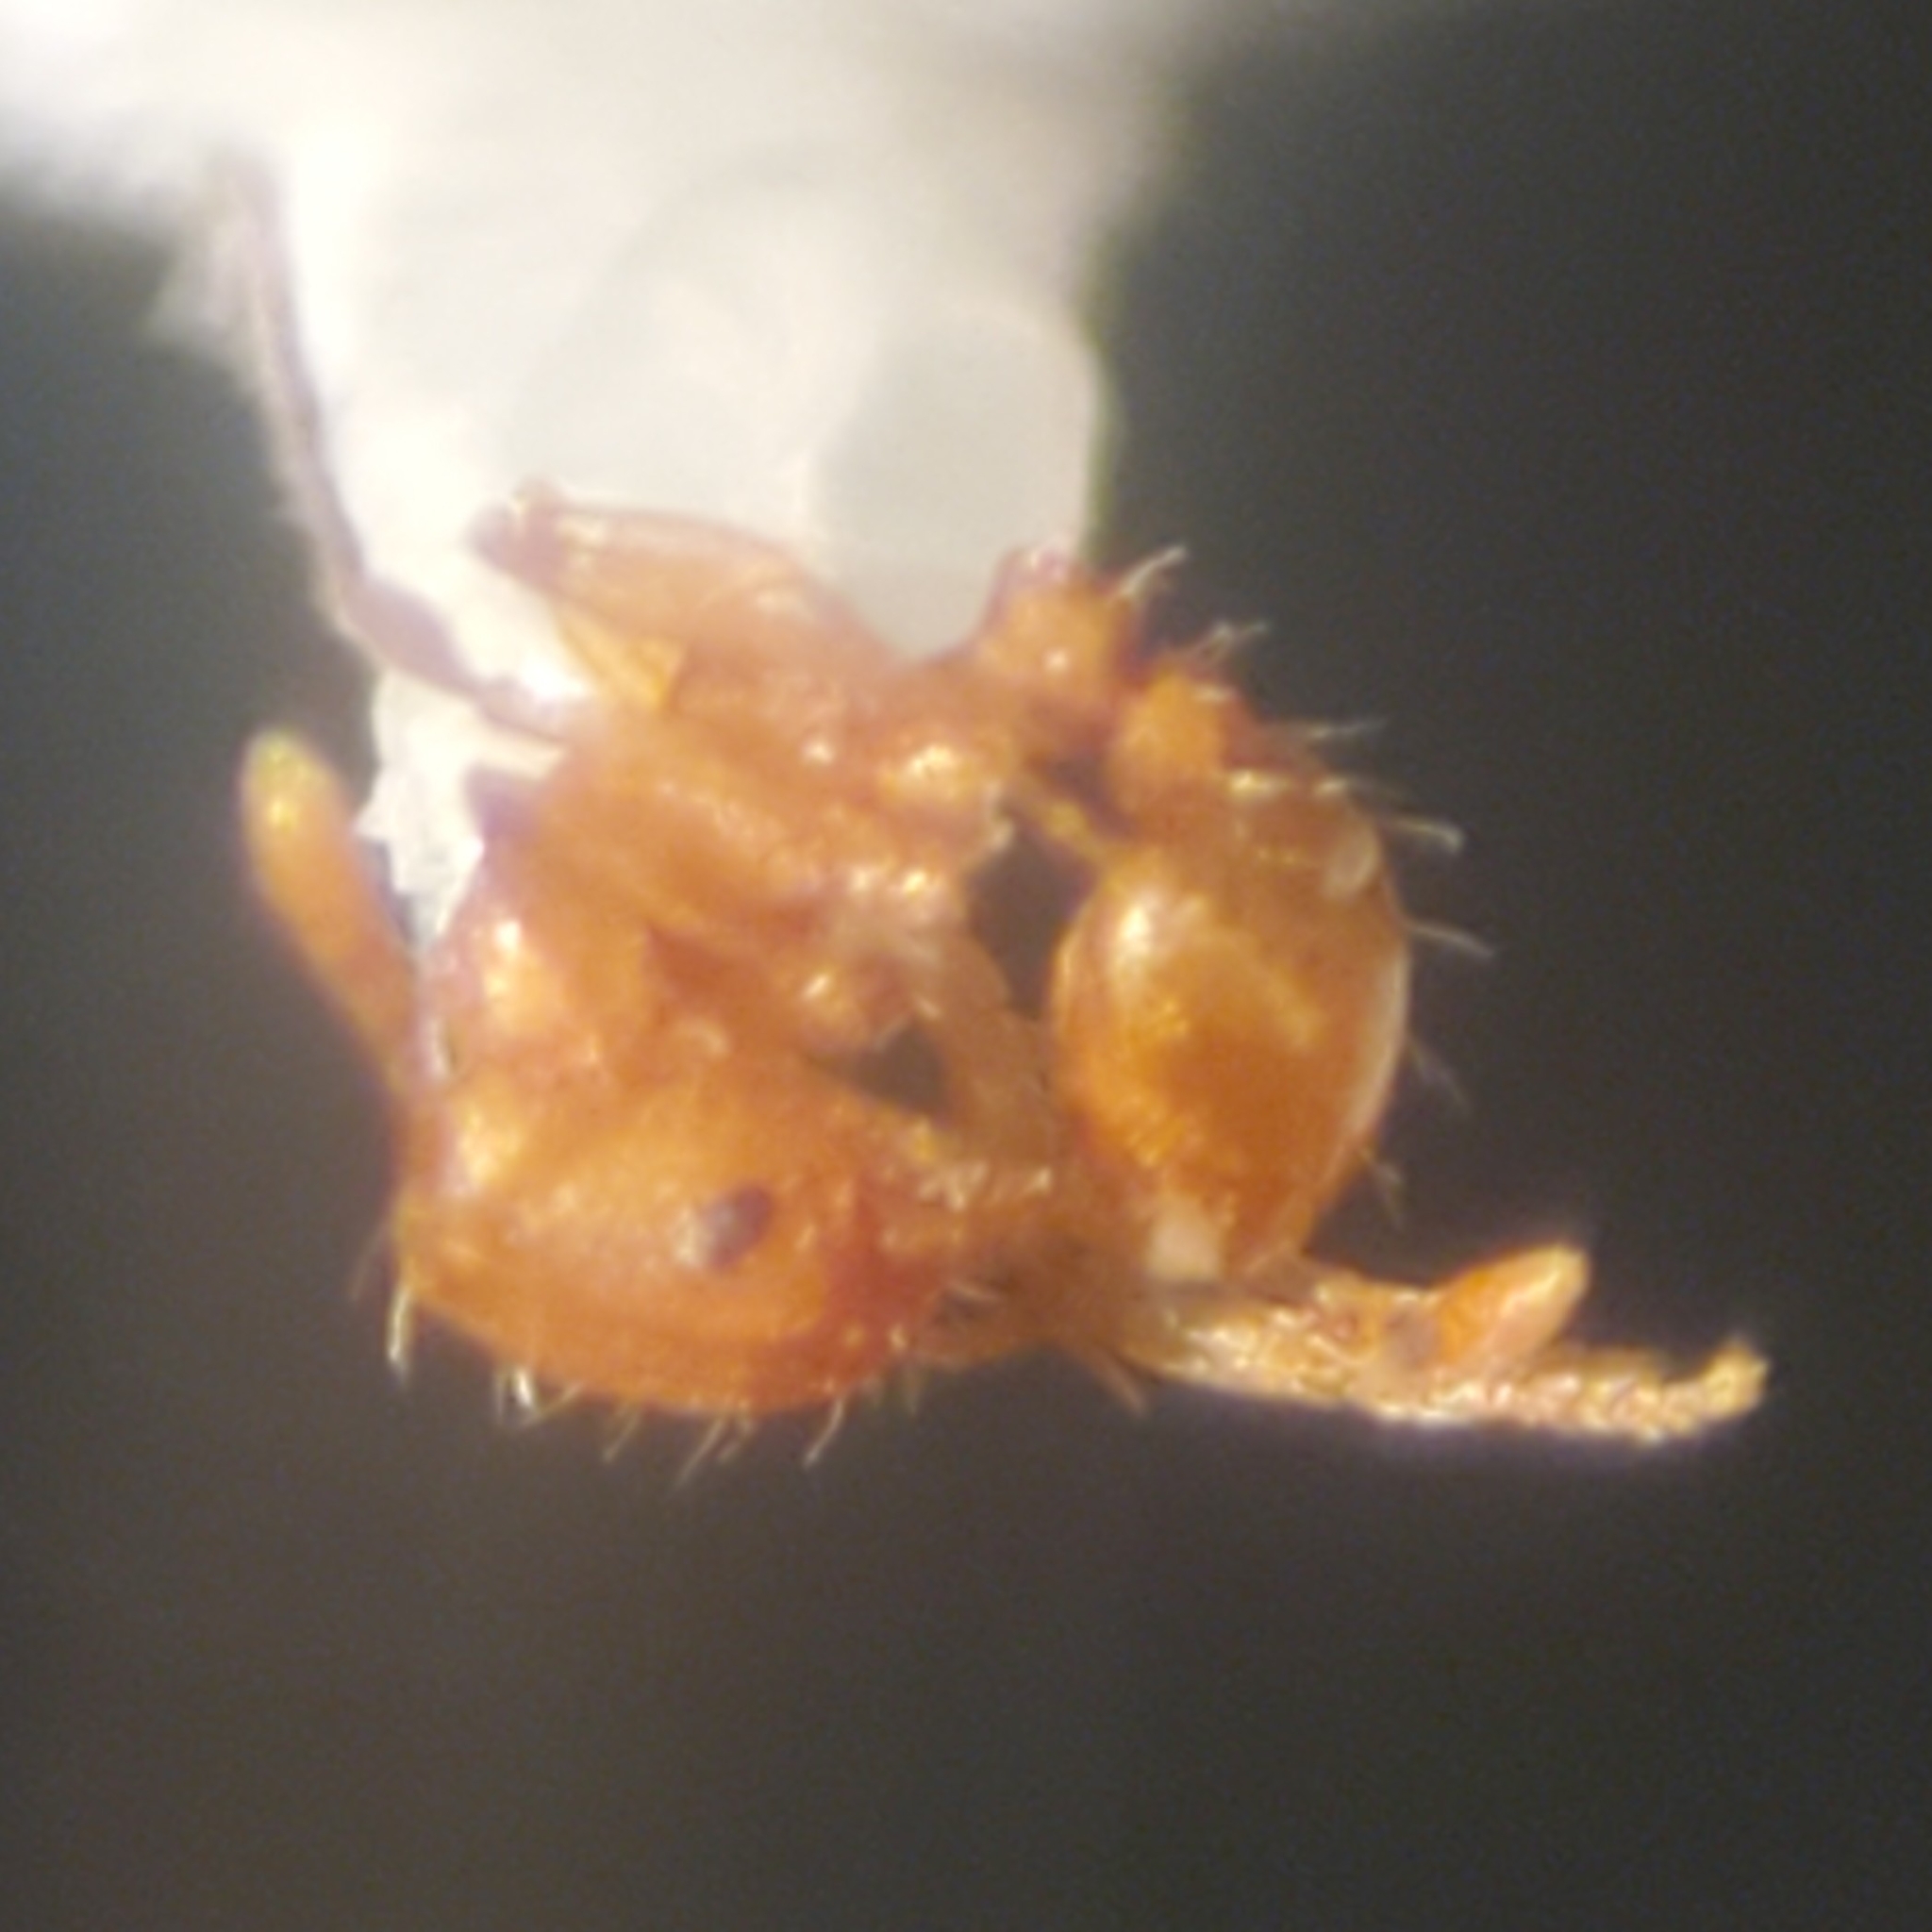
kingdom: Animalia
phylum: Arthropoda
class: Insecta
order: Hymenoptera
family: Formicidae
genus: Wasmannia
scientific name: Wasmannia auropunctata
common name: Little fire ant
